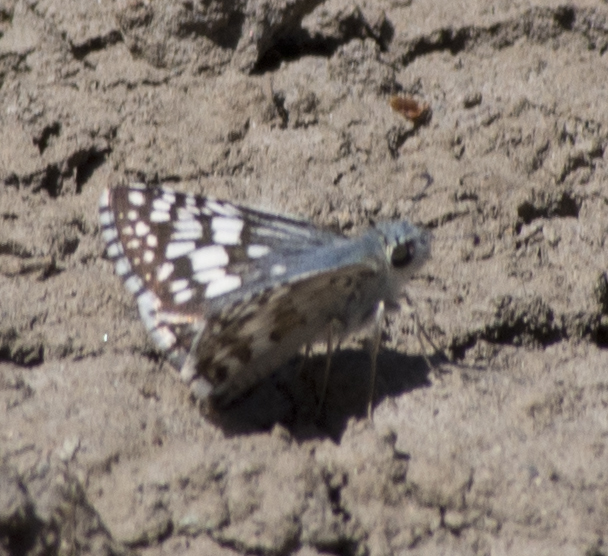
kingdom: Animalia
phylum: Arthropoda
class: Insecta
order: Lepidoptera
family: Hesperiidae
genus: Burnsius
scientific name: Burnsius communis
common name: Common checkered-skipper
